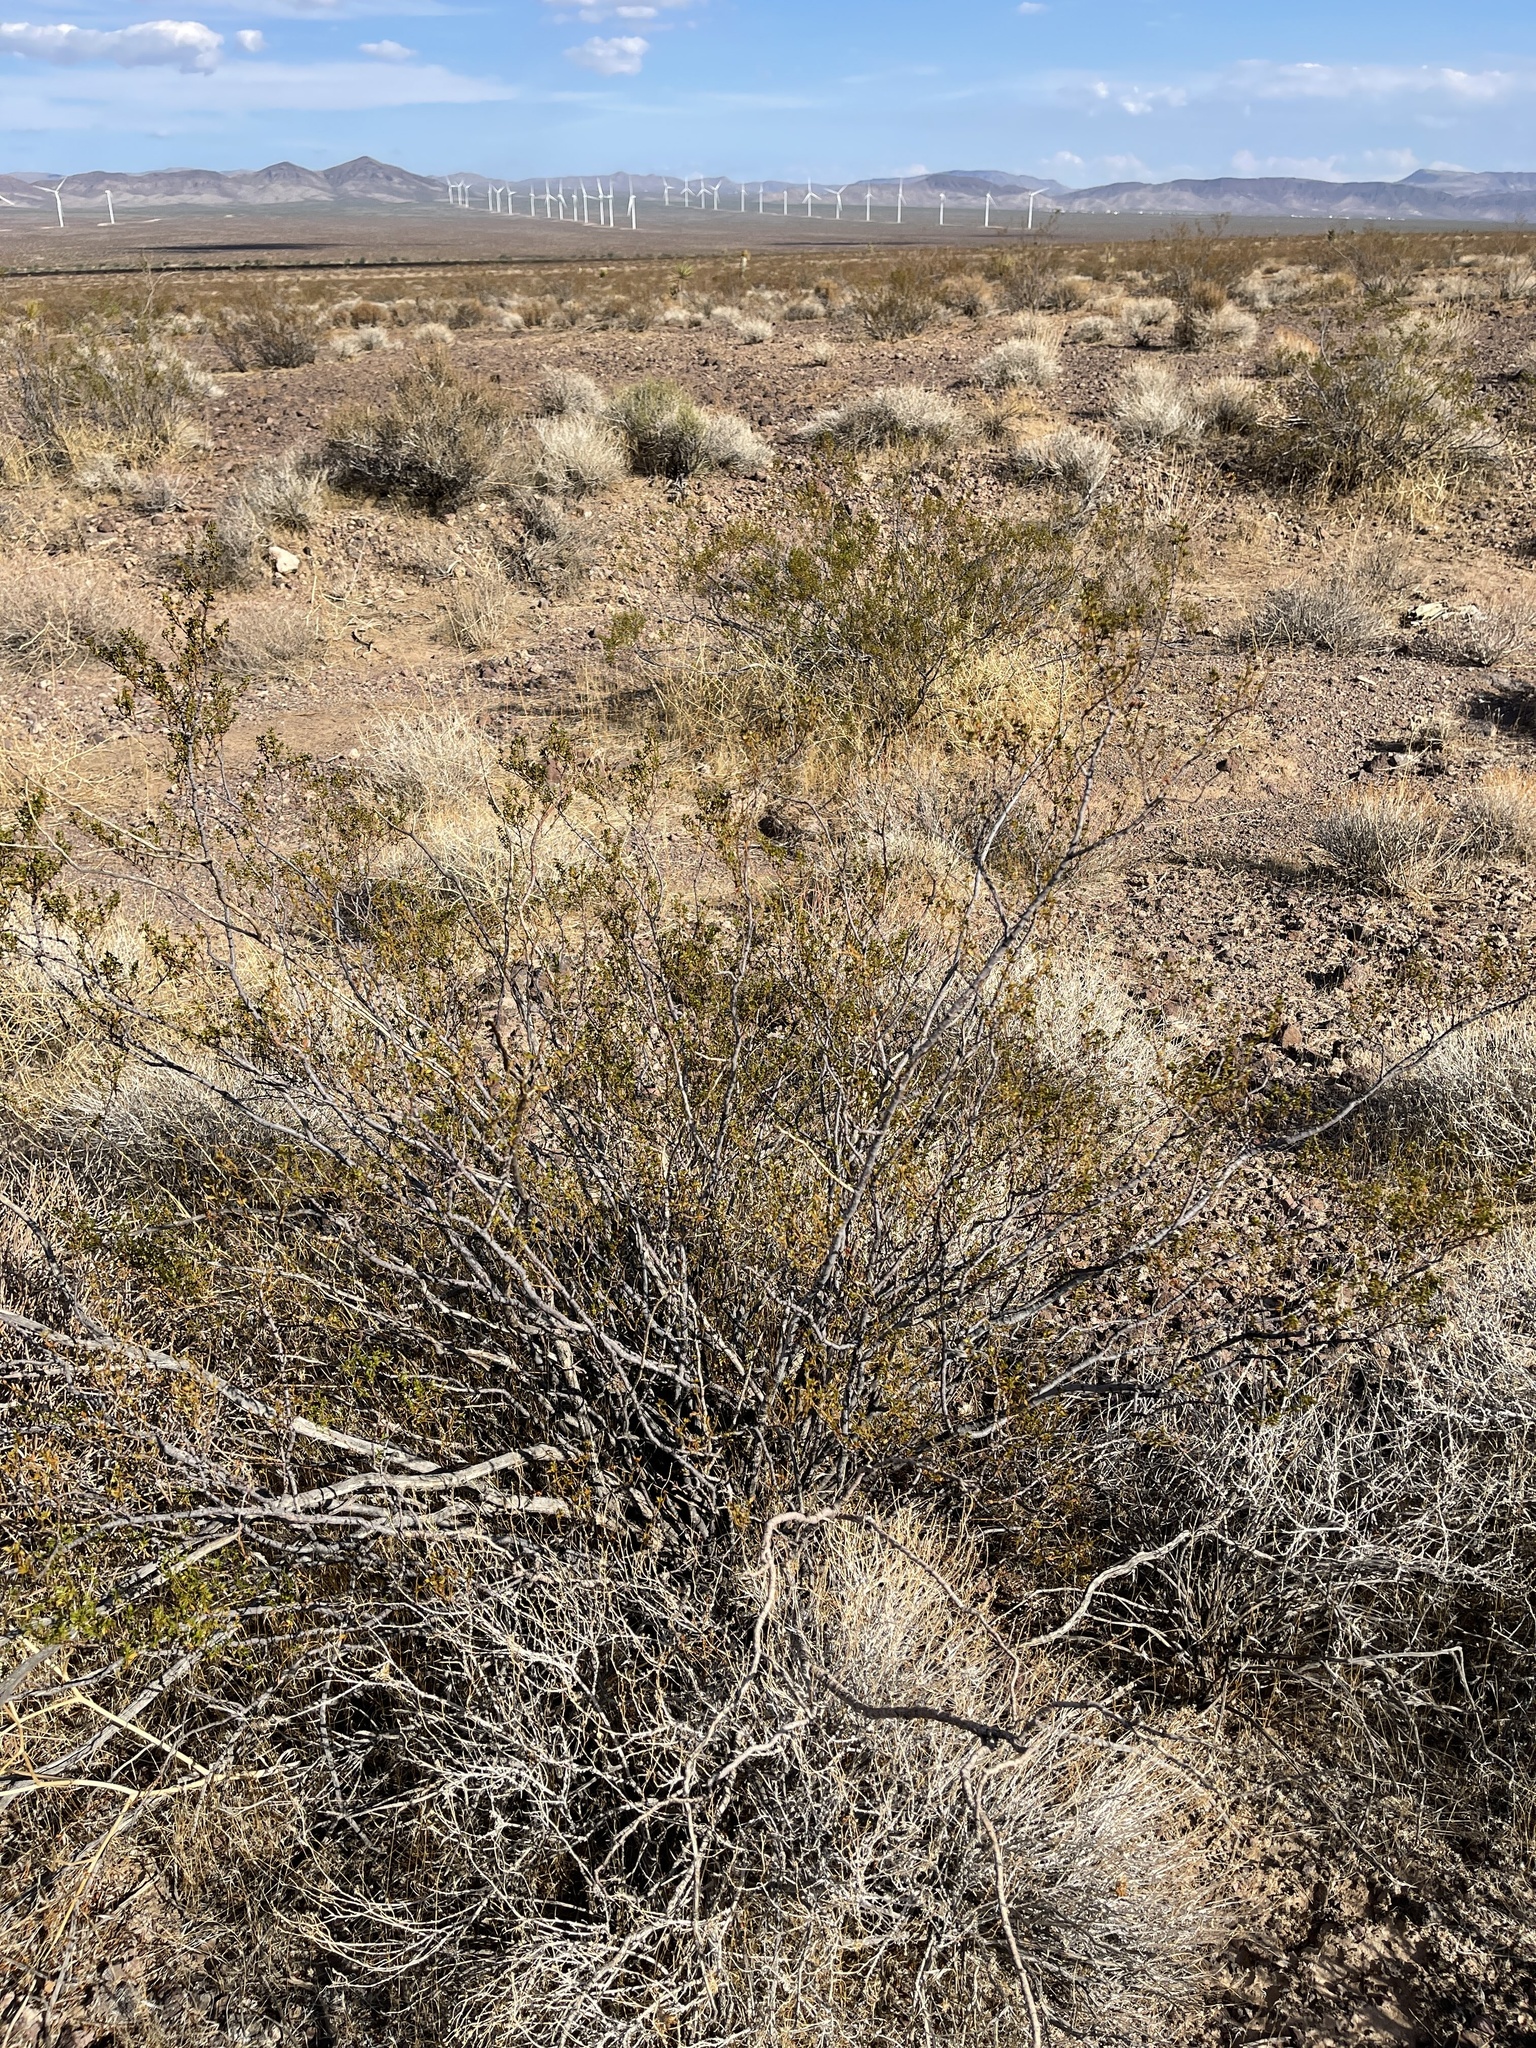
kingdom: Plantae
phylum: Tracheophyta
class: Magnoliopsida
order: Zygophyllales
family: Zygophyllaceae
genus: Larrea
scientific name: Larrea tridentata
